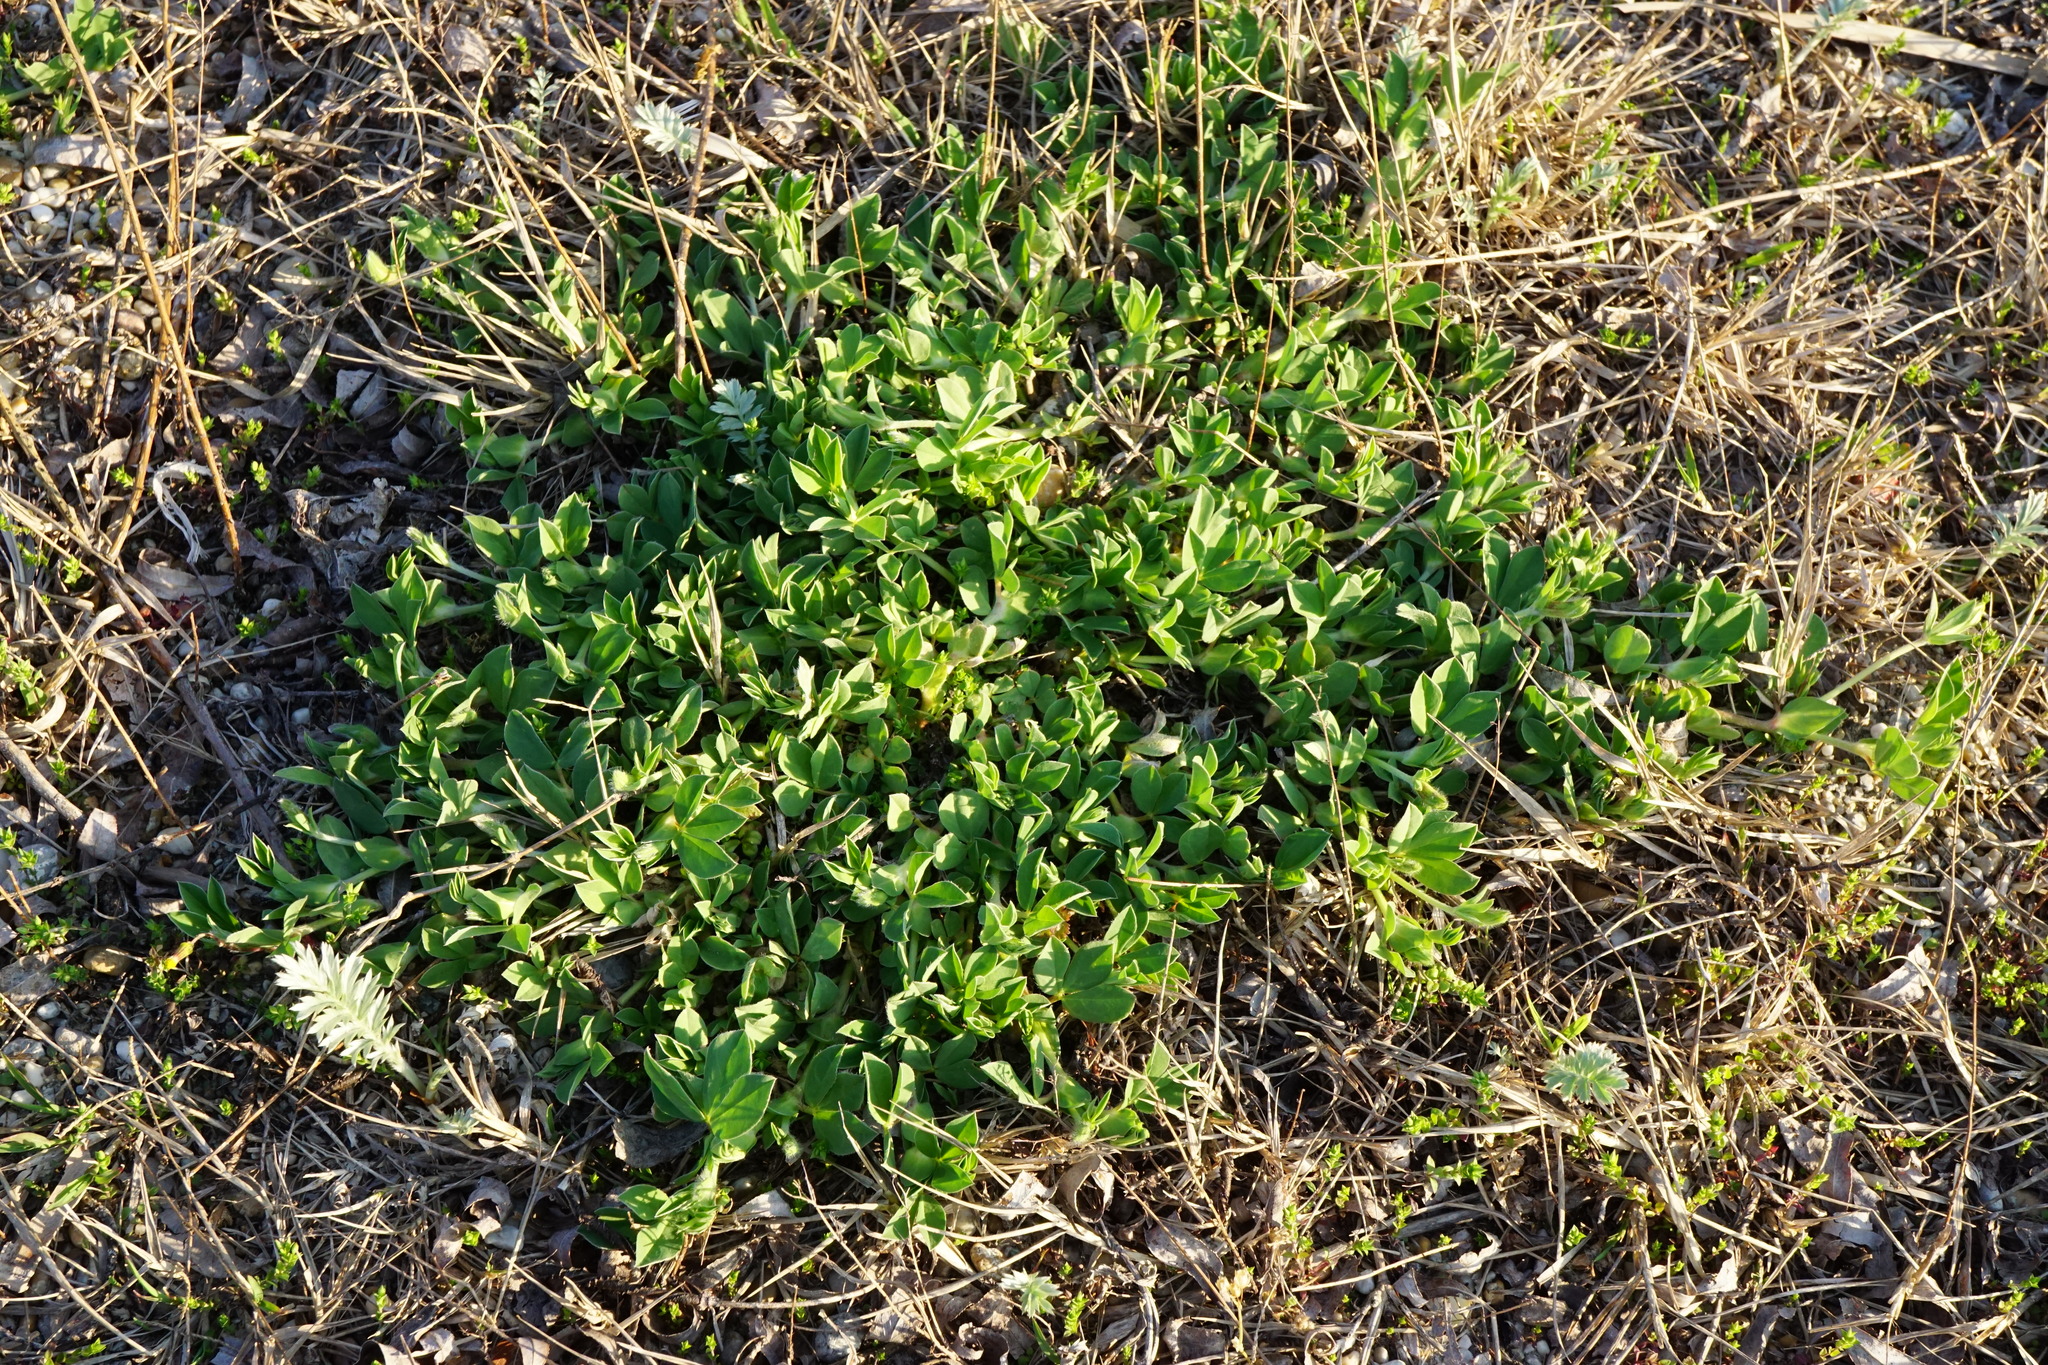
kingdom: Plantae
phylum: Tracheophyta
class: Magnoliopsida
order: Fabales
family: Fabaceae
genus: Lotus
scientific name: Lotus maritimus
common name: Dragon's-teeth
